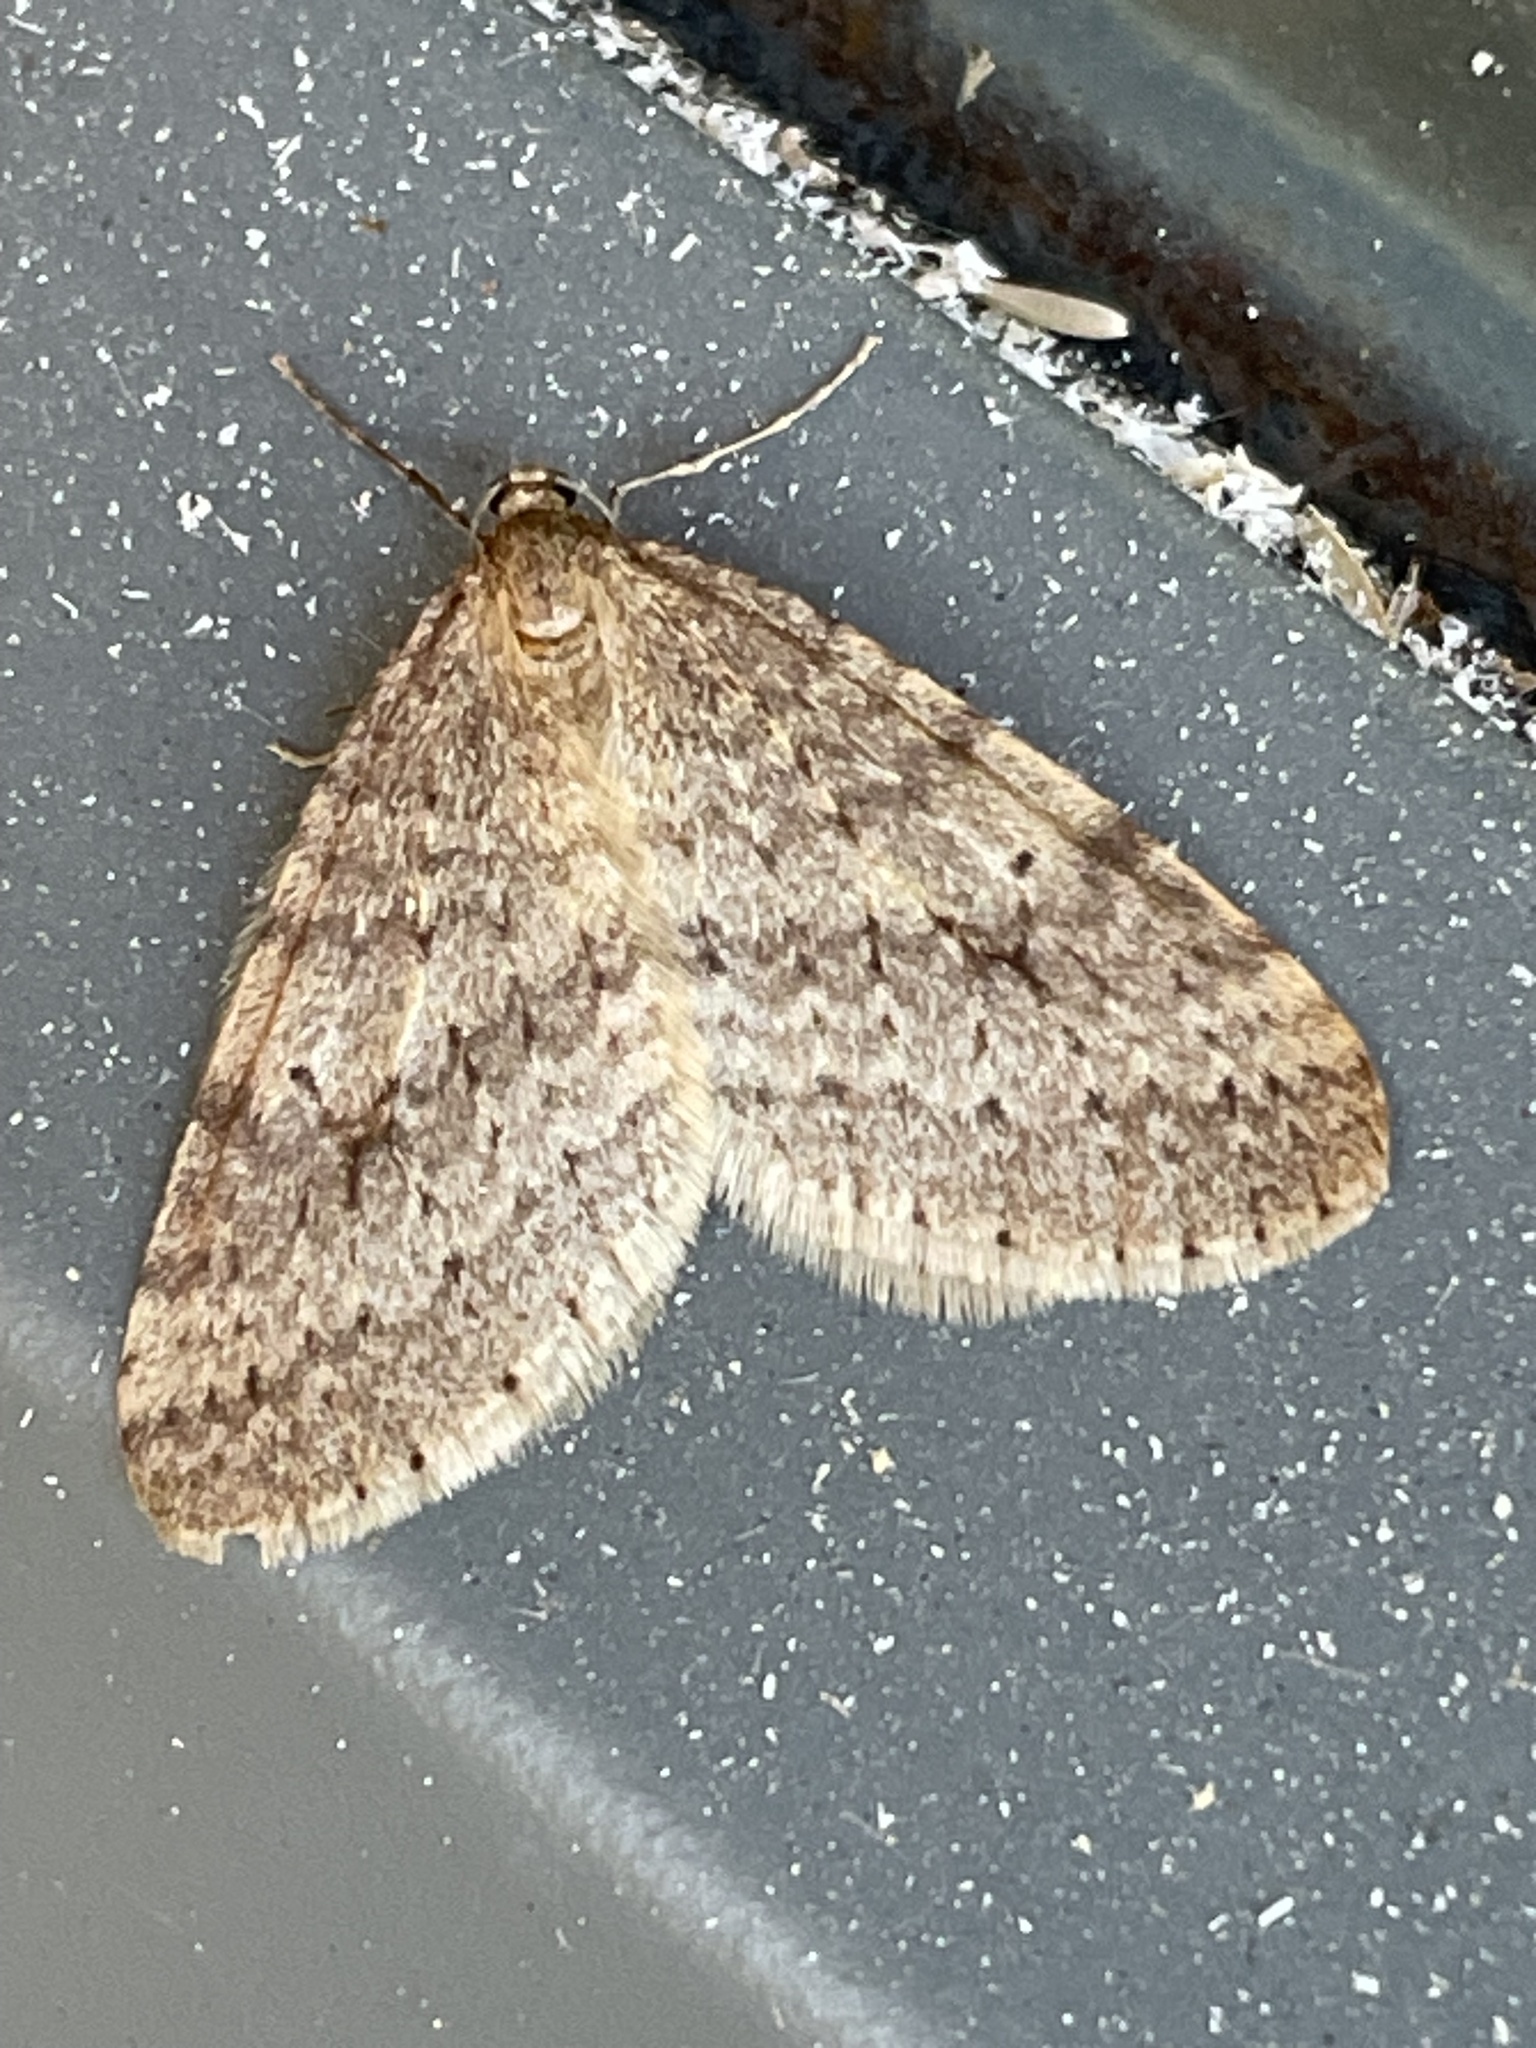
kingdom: Animalia
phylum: Arthropoda
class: Insecta
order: Lepidoptera
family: Geometridae
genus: Operophtera
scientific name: Operophtera bruceata
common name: Bruce spanworm
